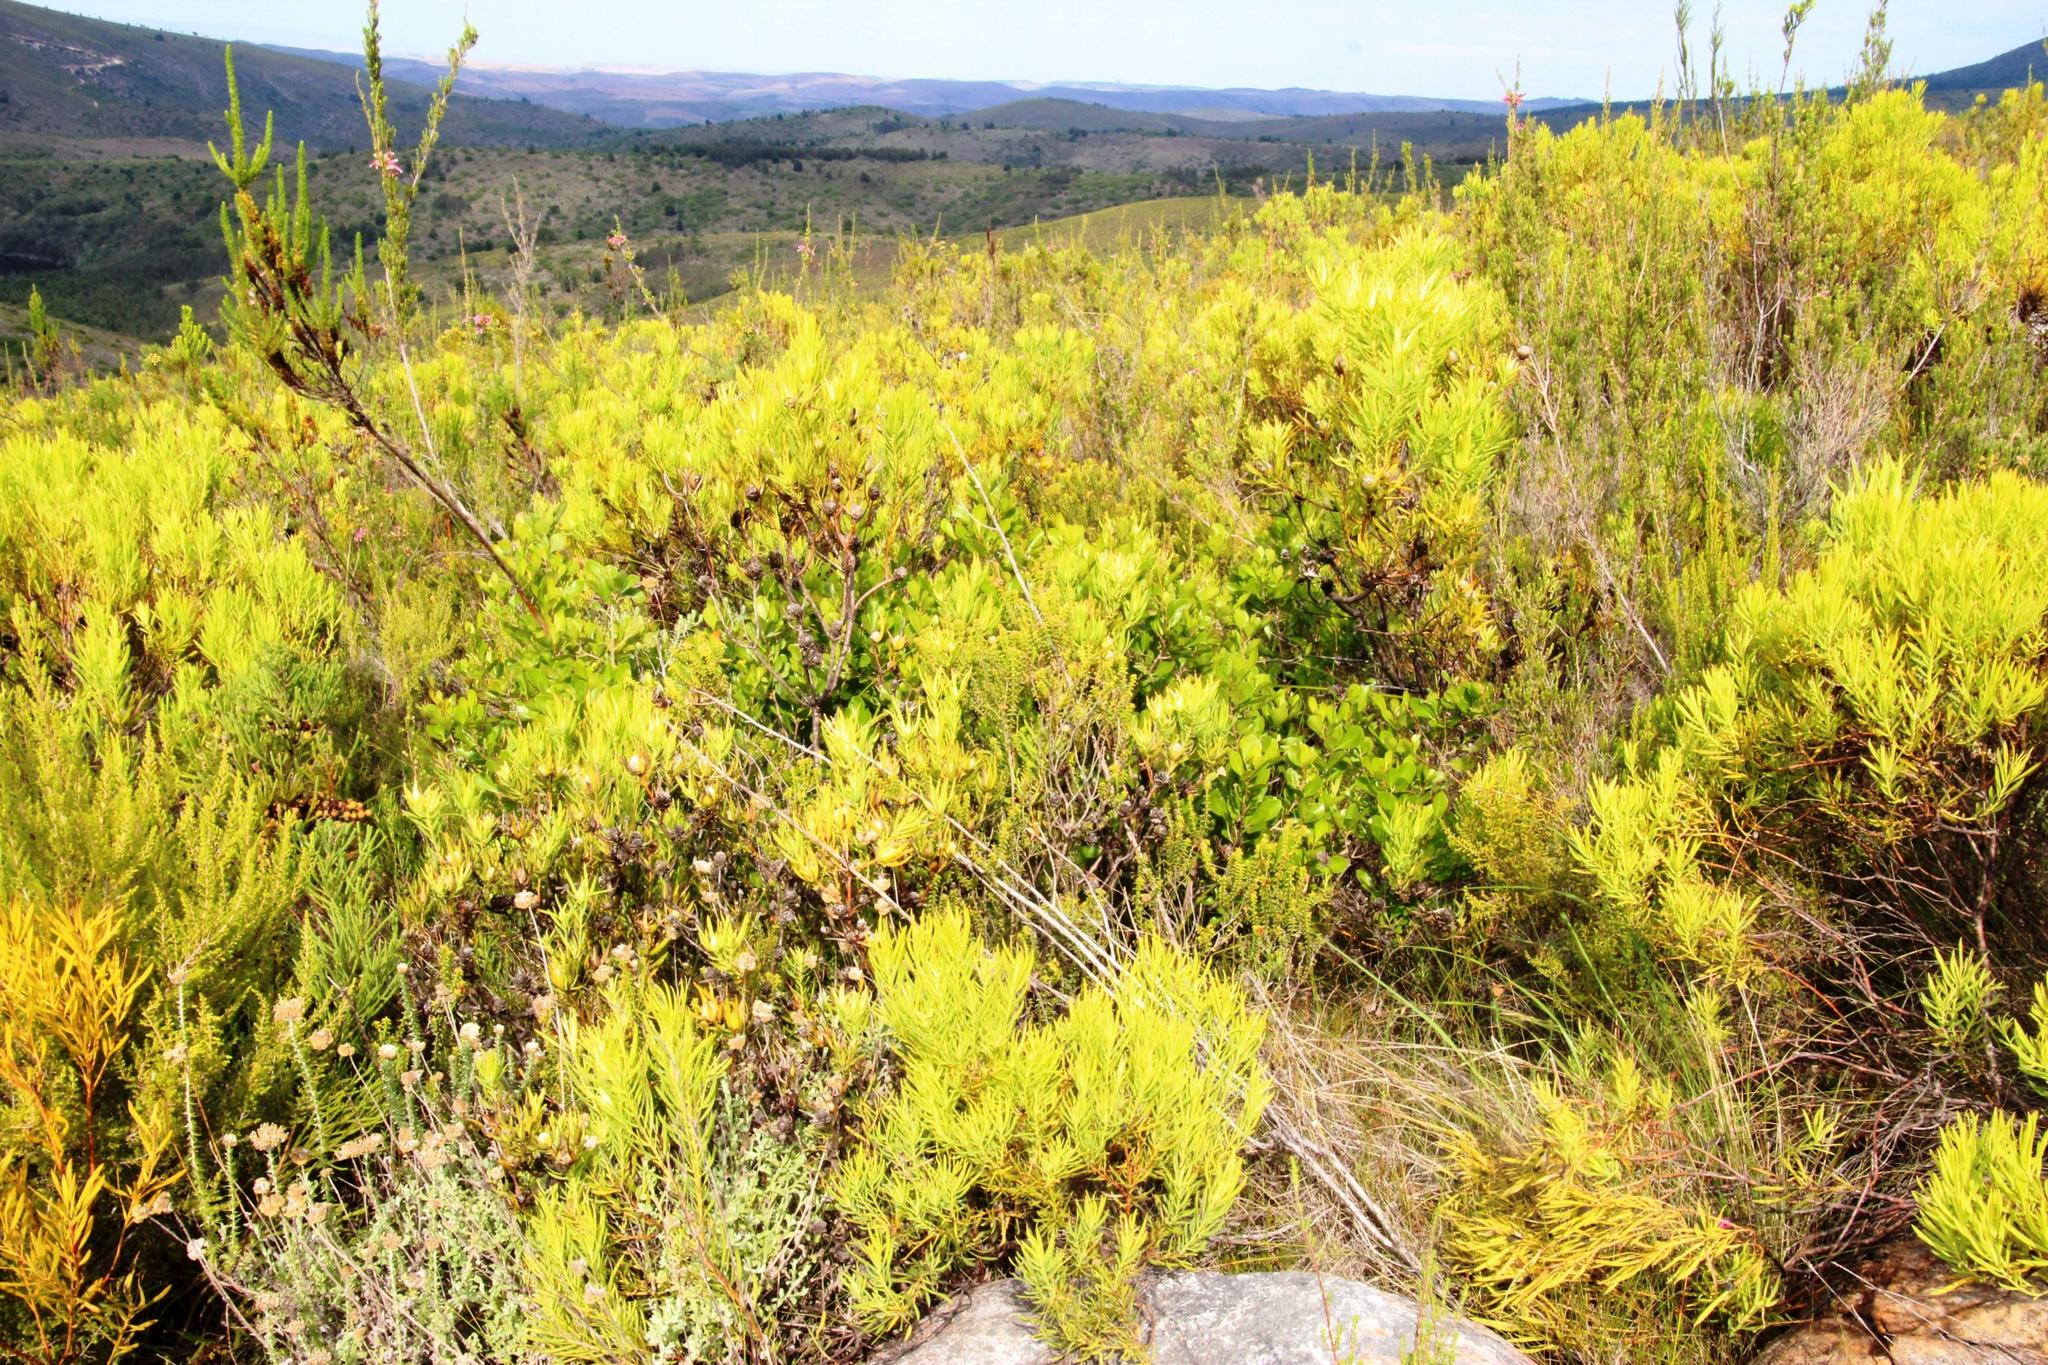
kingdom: Plantae
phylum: Tracheophyta
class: Magnoliopsida
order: Proteales
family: Proteaceae
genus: Leucadendron
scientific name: Leucadendron salignum
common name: Common sunshine conebush
